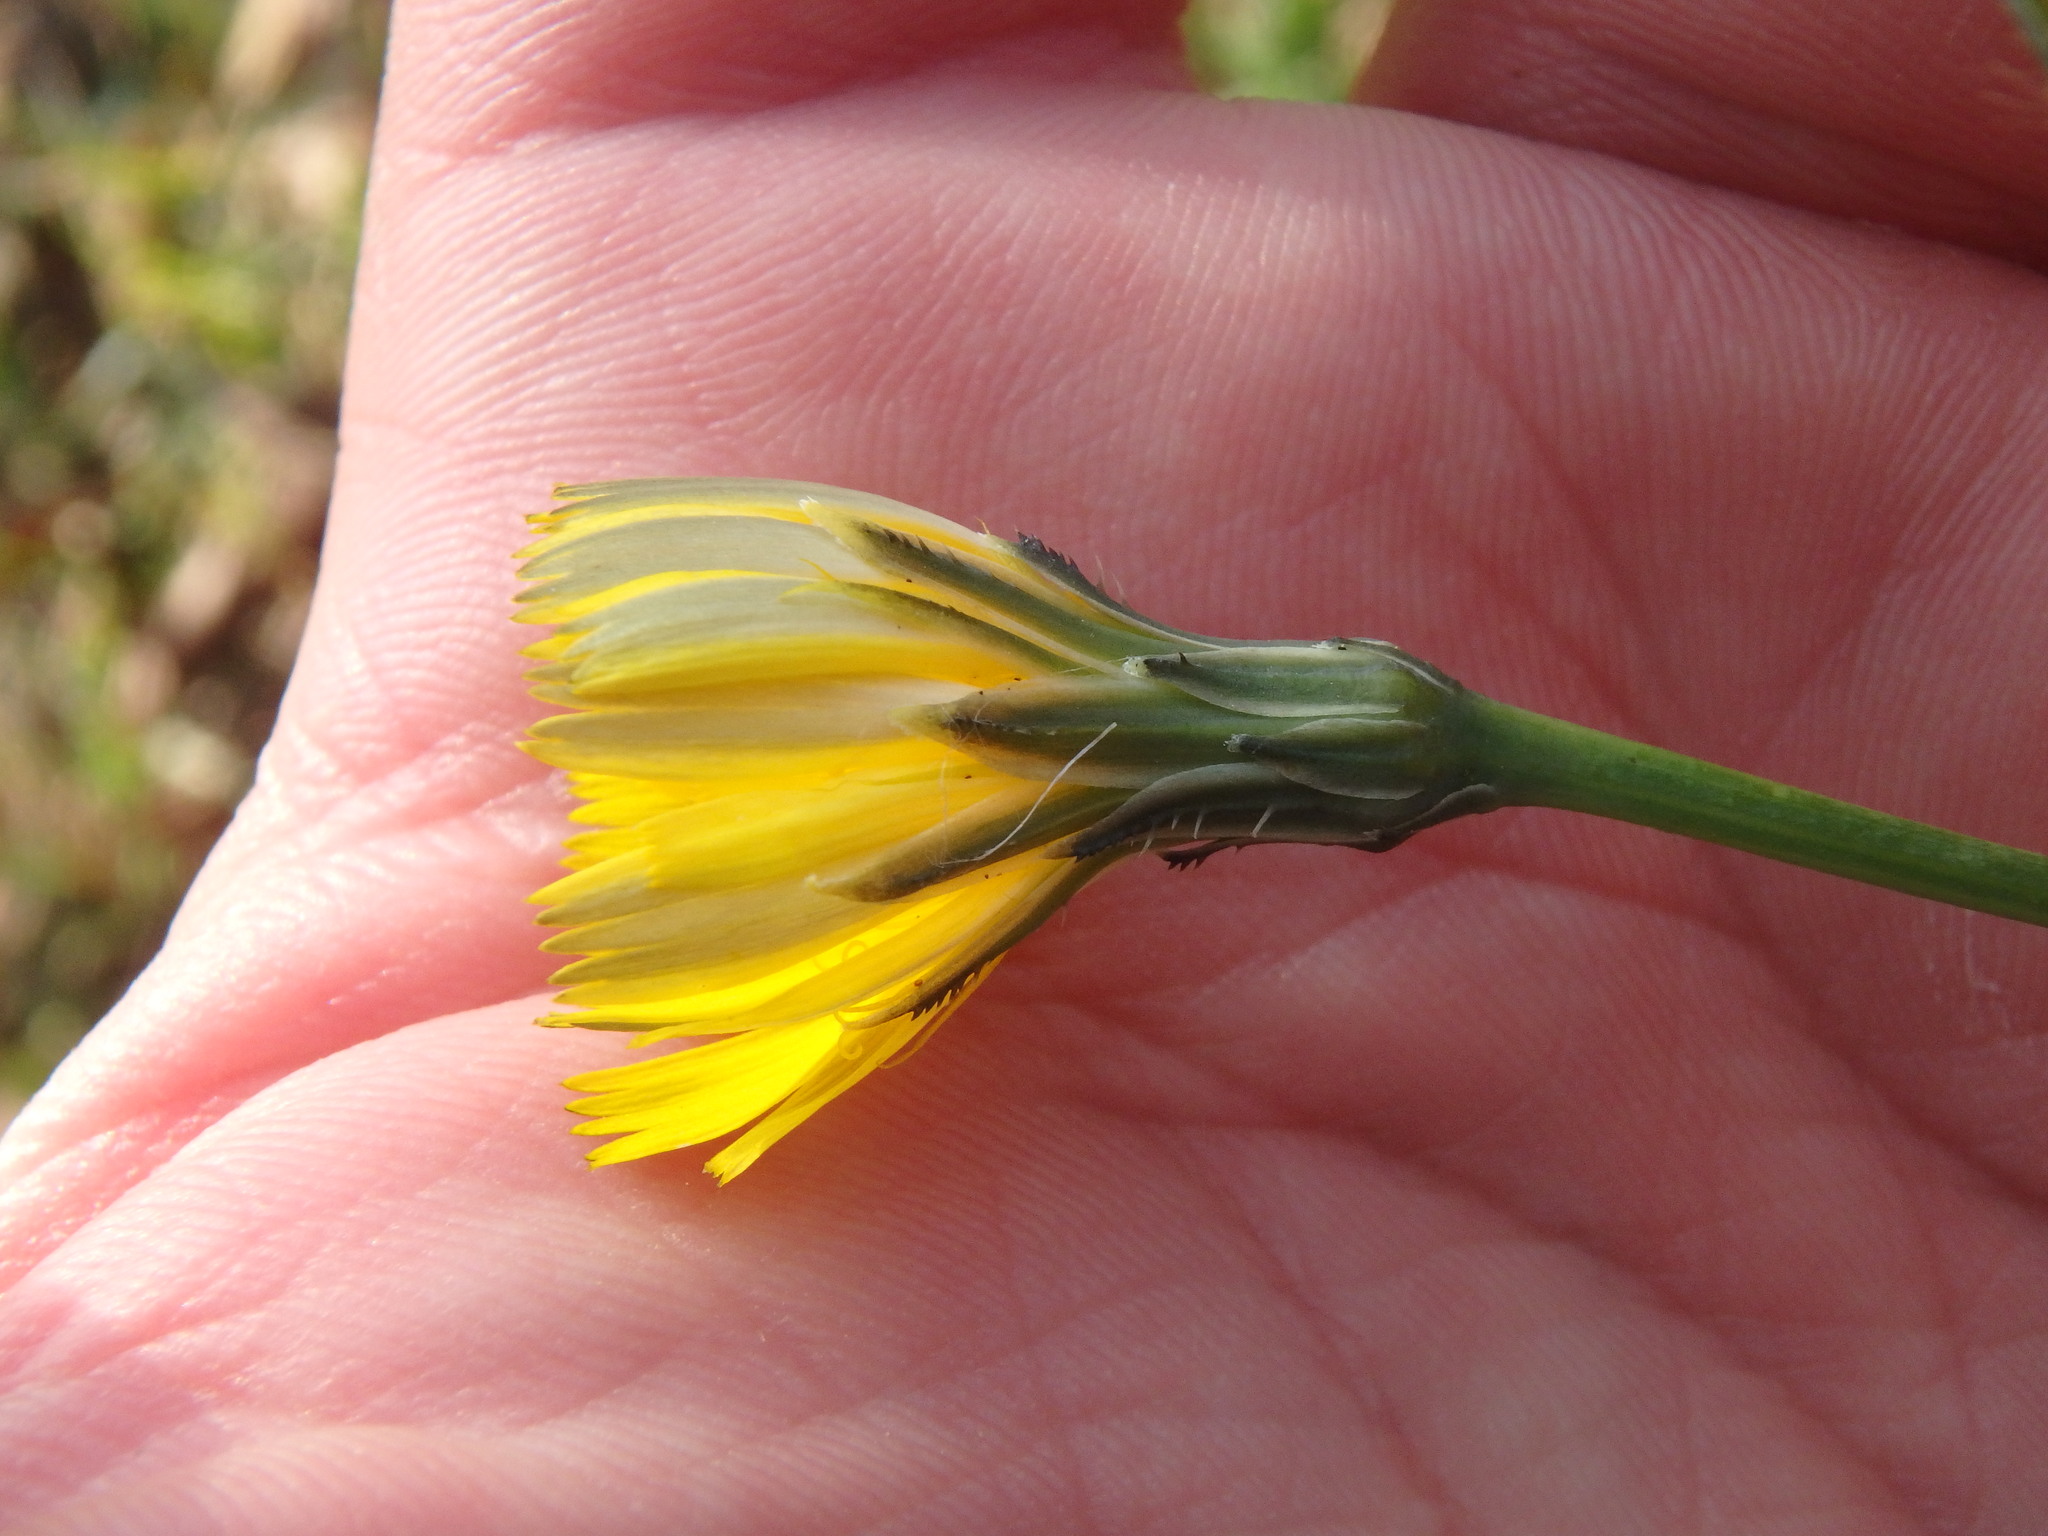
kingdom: Plantae
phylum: Tracheophyta
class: Magnoliopsida
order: Asterales
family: Asteraceae
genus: Scorzoneroides
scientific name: Scorzoneroides autumnalis
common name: Autumn hawkbit
